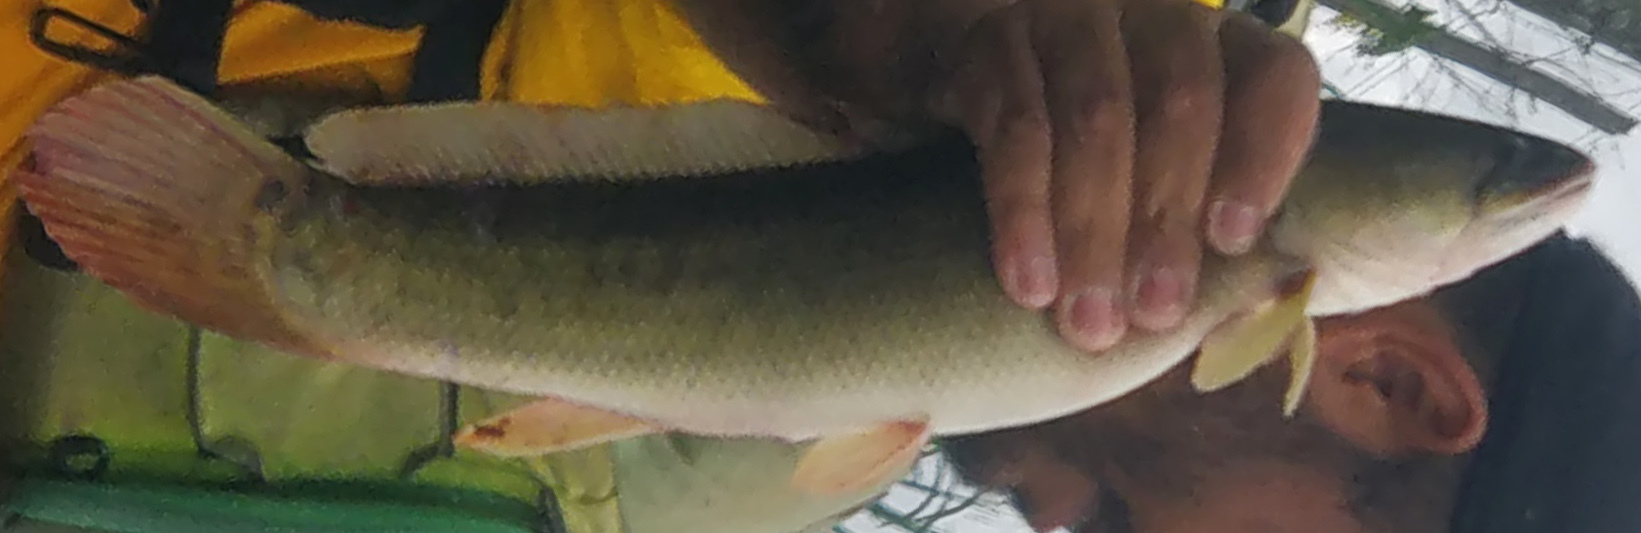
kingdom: Animalia
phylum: Chordata
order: Amiiformes
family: Amiidae
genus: Amia
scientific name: Amia calva
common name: Bowfin
